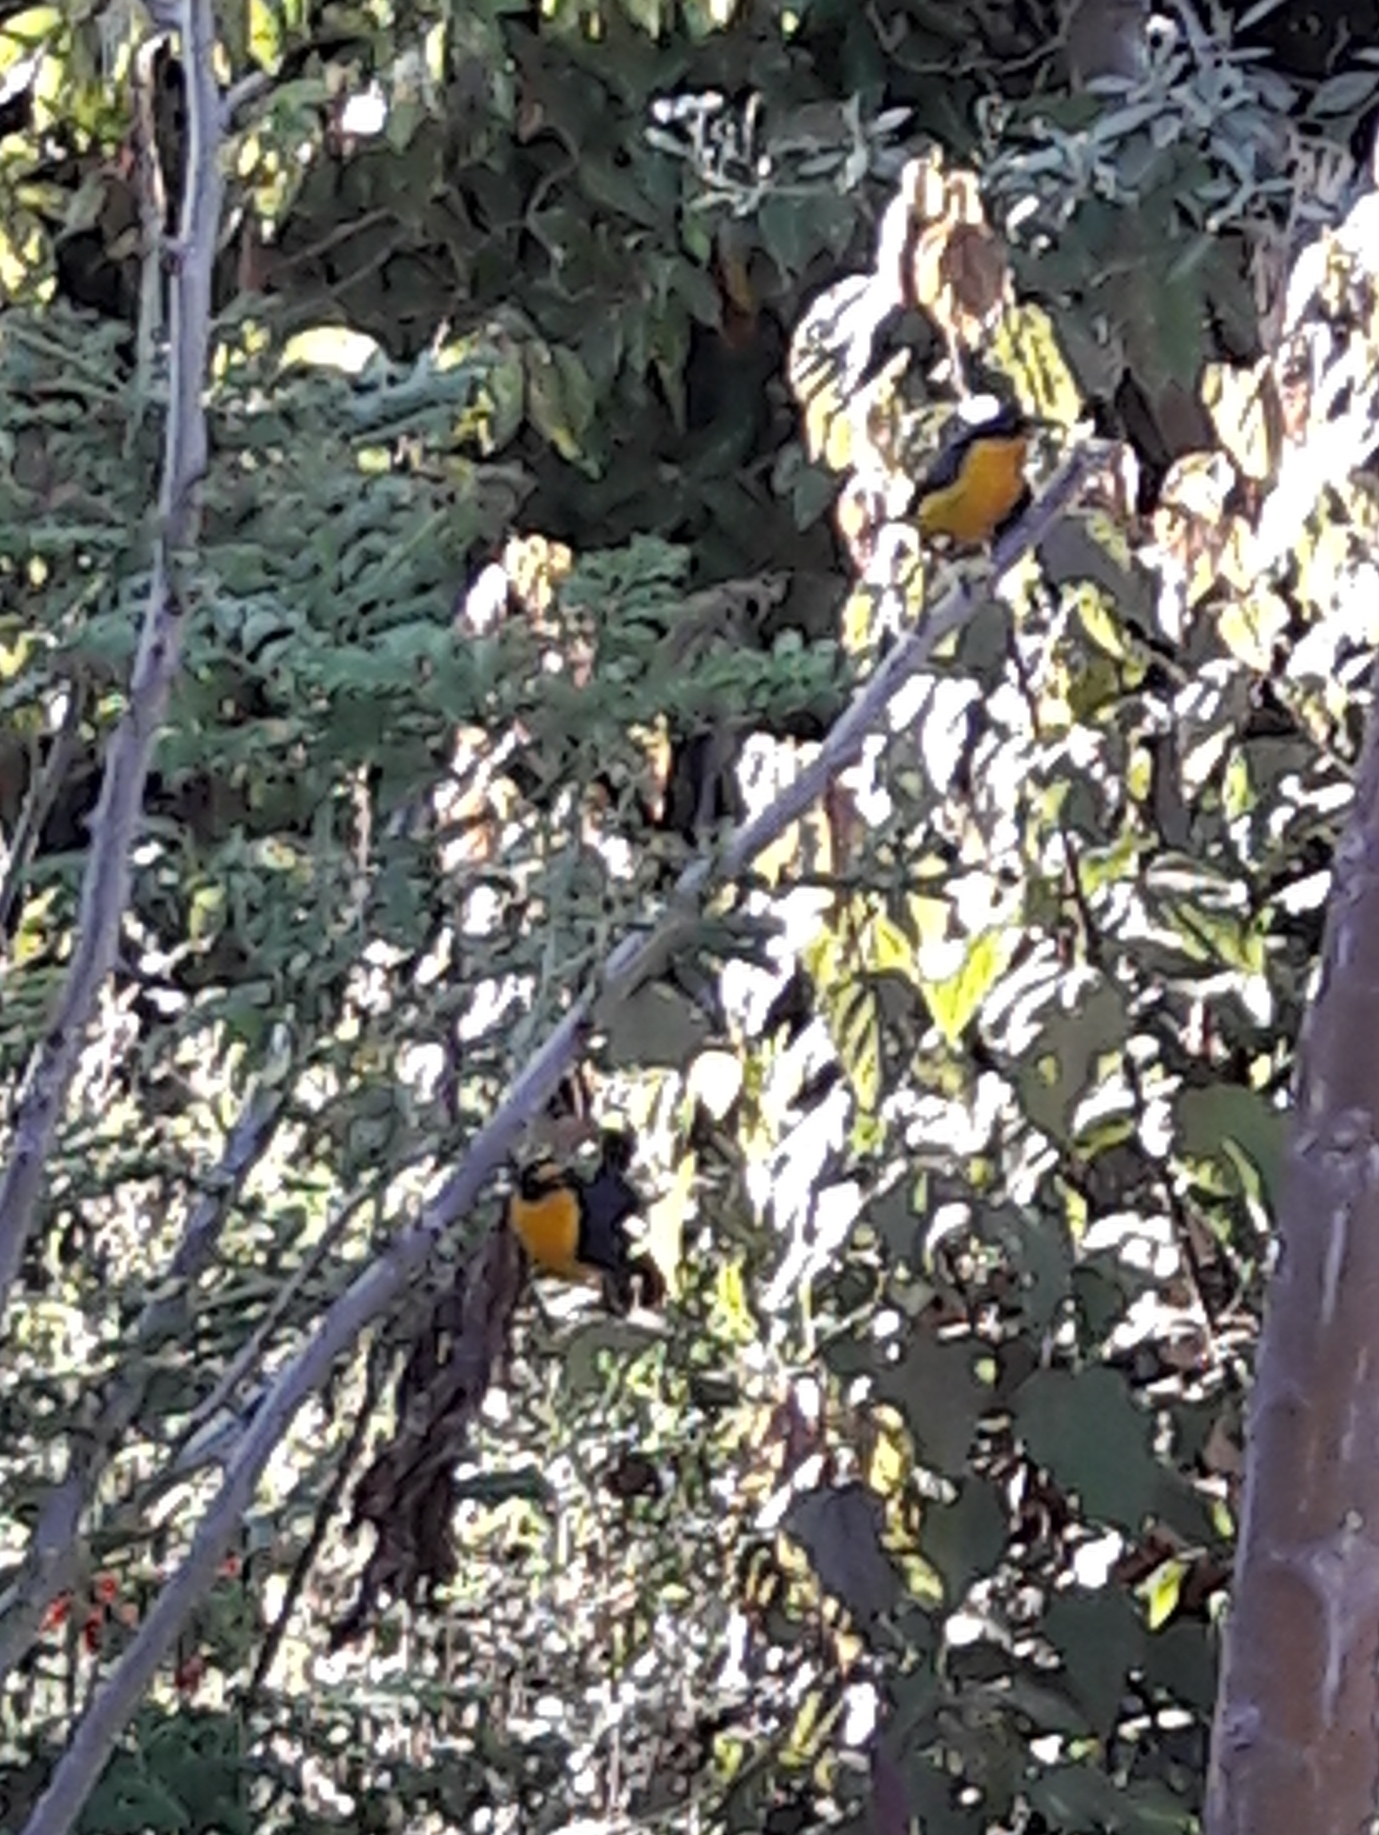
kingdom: Animalia
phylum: Chordata
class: Aves
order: Passeriformes
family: Fringillidae
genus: Euphonia
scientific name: Euphonia chlorotica
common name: Purple-throated euphonia
